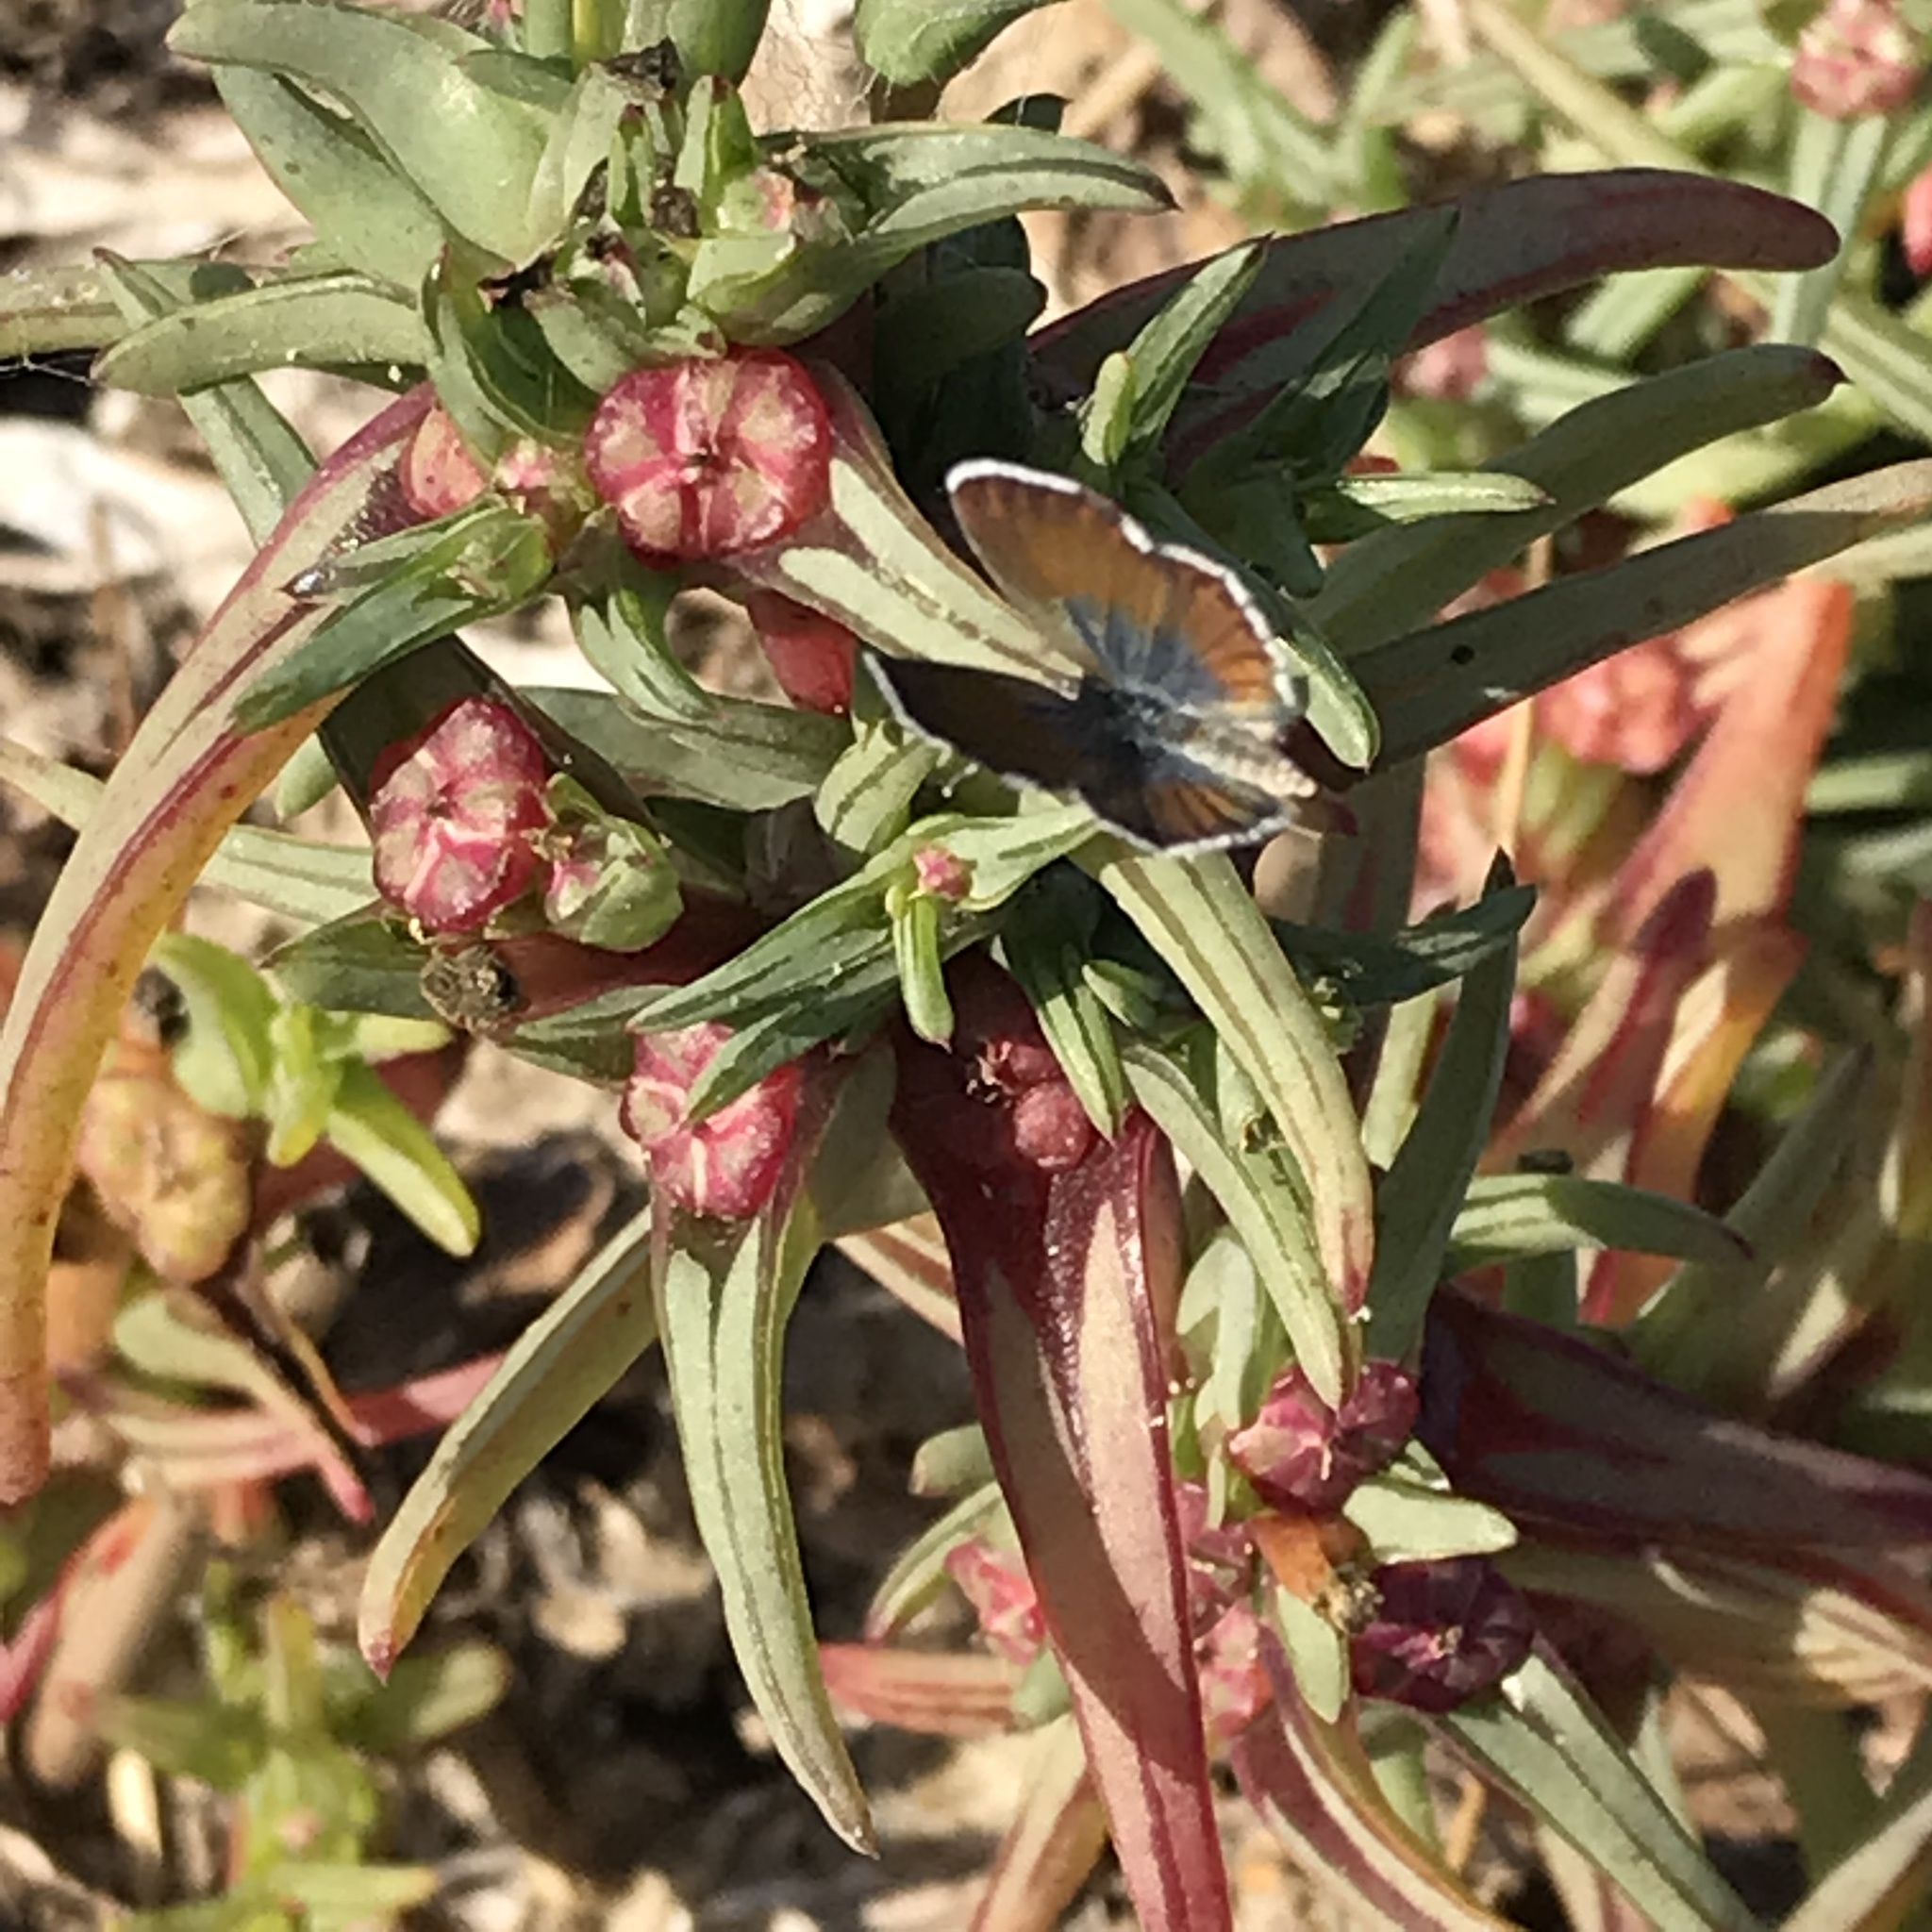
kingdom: Animalia
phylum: Arthropoda
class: Insecta
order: Lepidoptera
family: Lycaenidae
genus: Brephidium
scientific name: Brephidium exilis
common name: Pygmy blue
